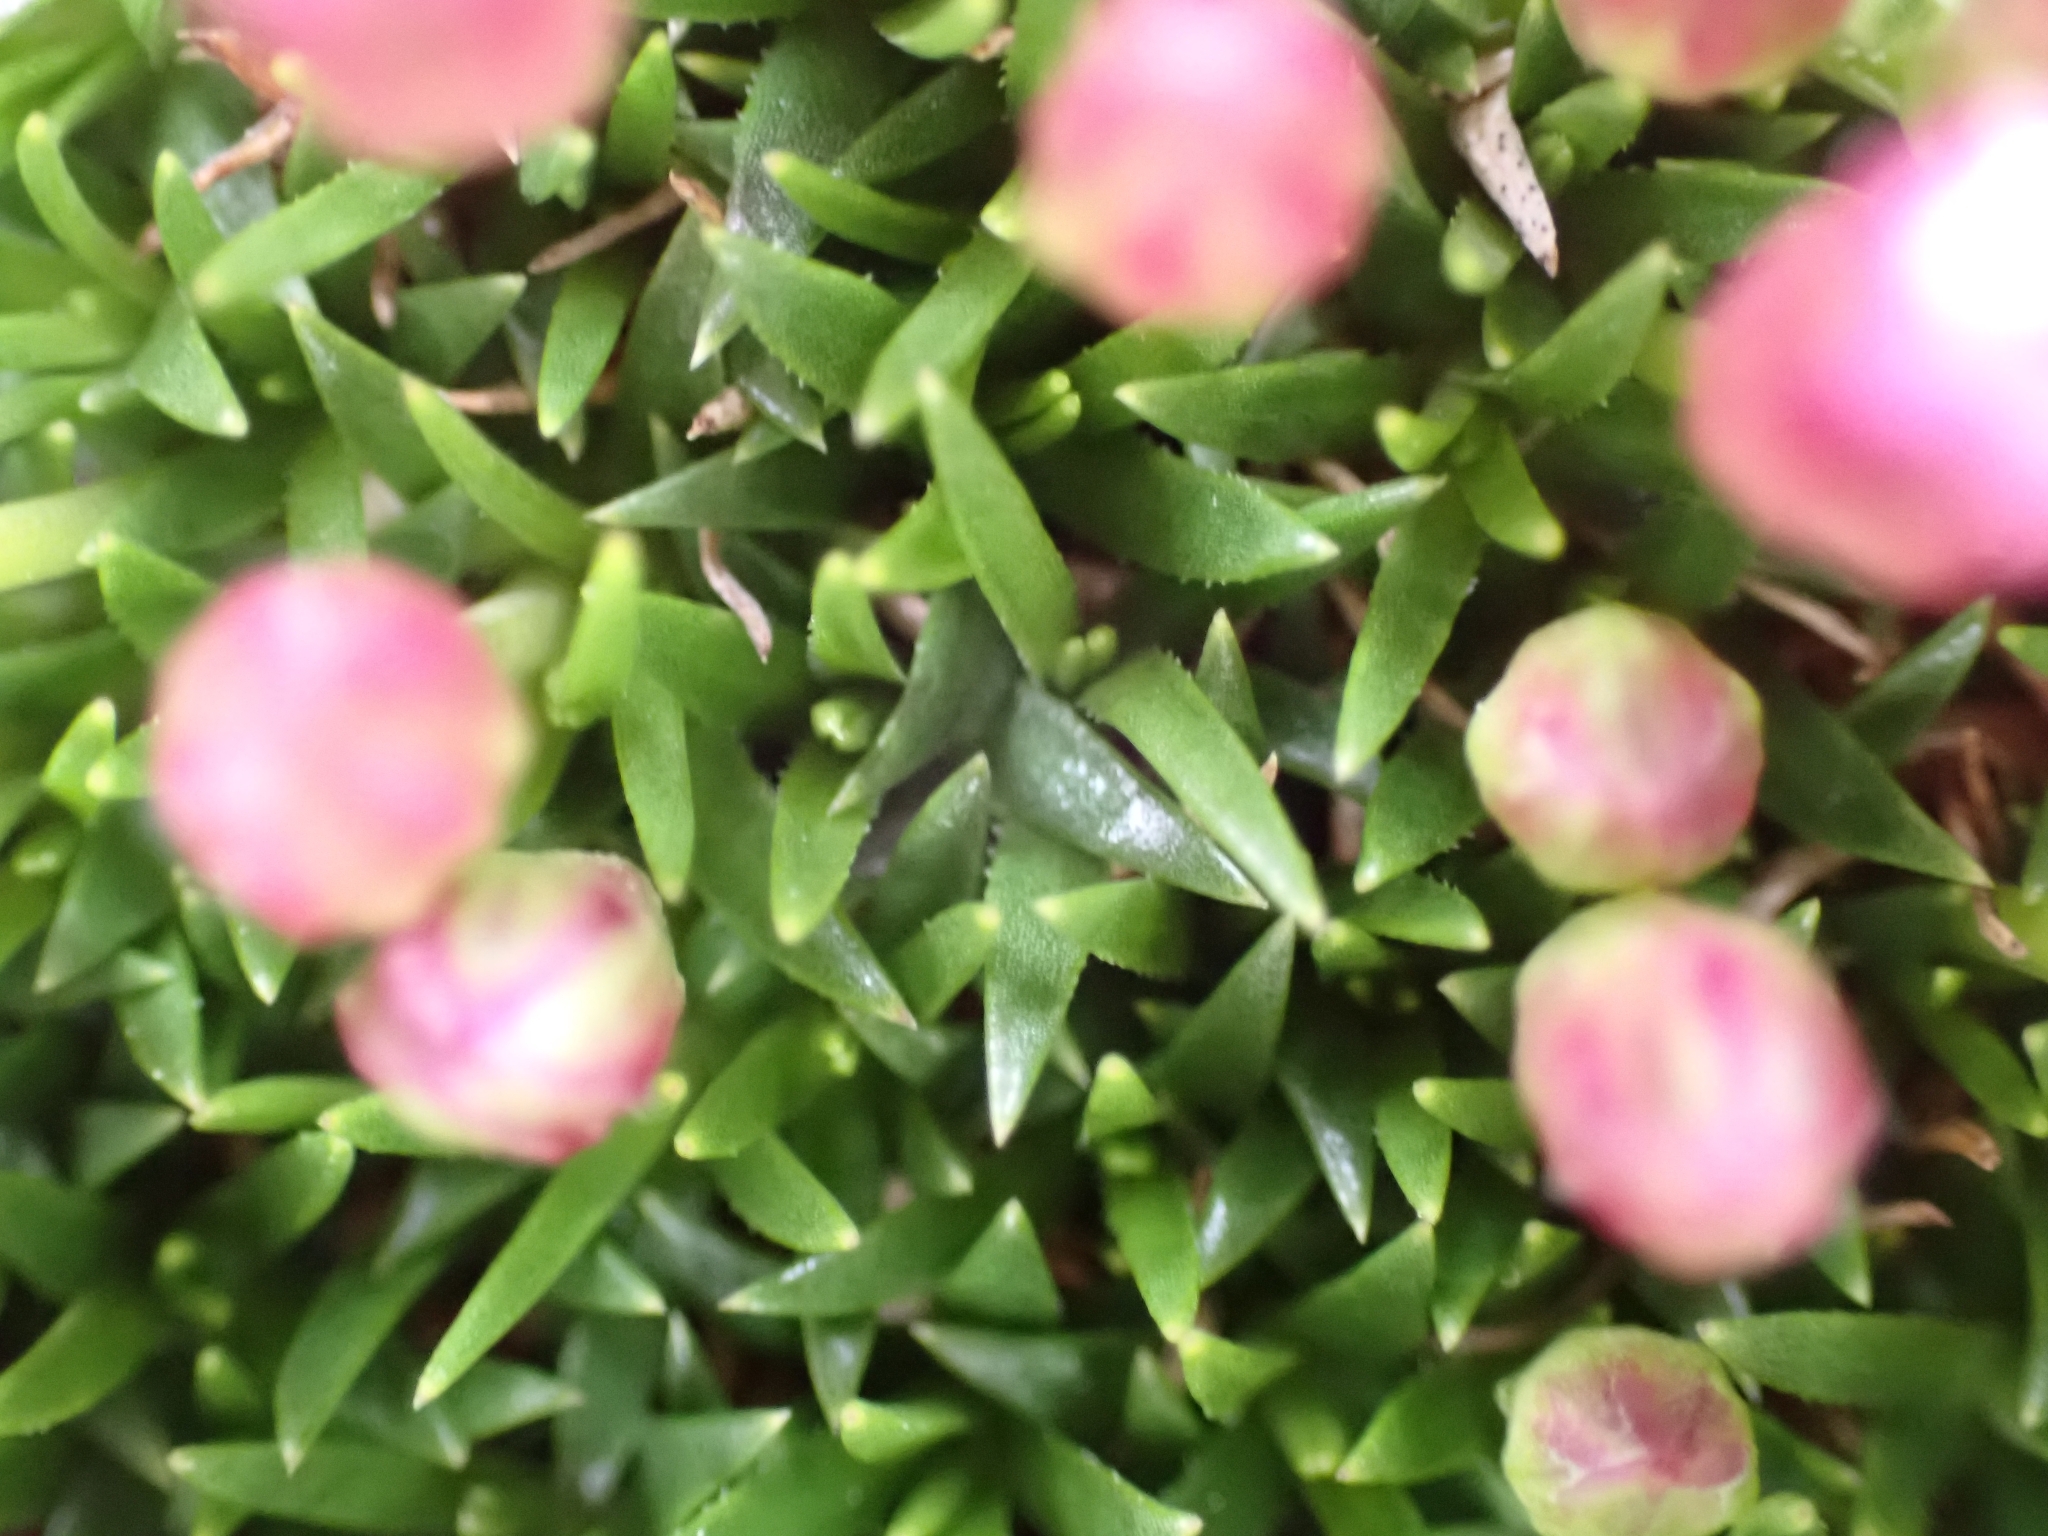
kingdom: Plantae
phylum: Tracheophyta
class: Magnoliopsida
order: Caryophyllales
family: Caryophyllaceae
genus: Silene
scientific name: Silene acaulis
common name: Moss campion
